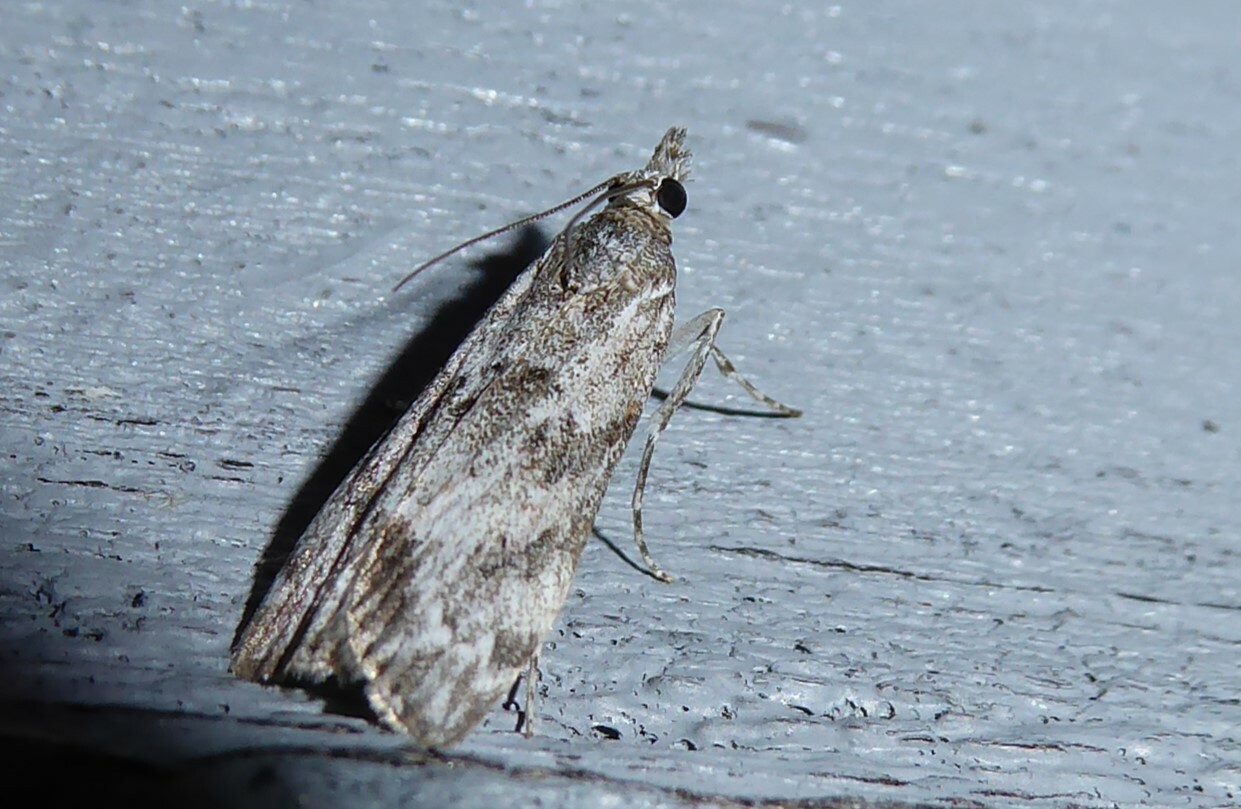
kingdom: Animalia
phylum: Arthropoda
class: Insecta
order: Lepidoptera
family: Crambidae
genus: Eudonia
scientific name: Eudonia rakaiensis
